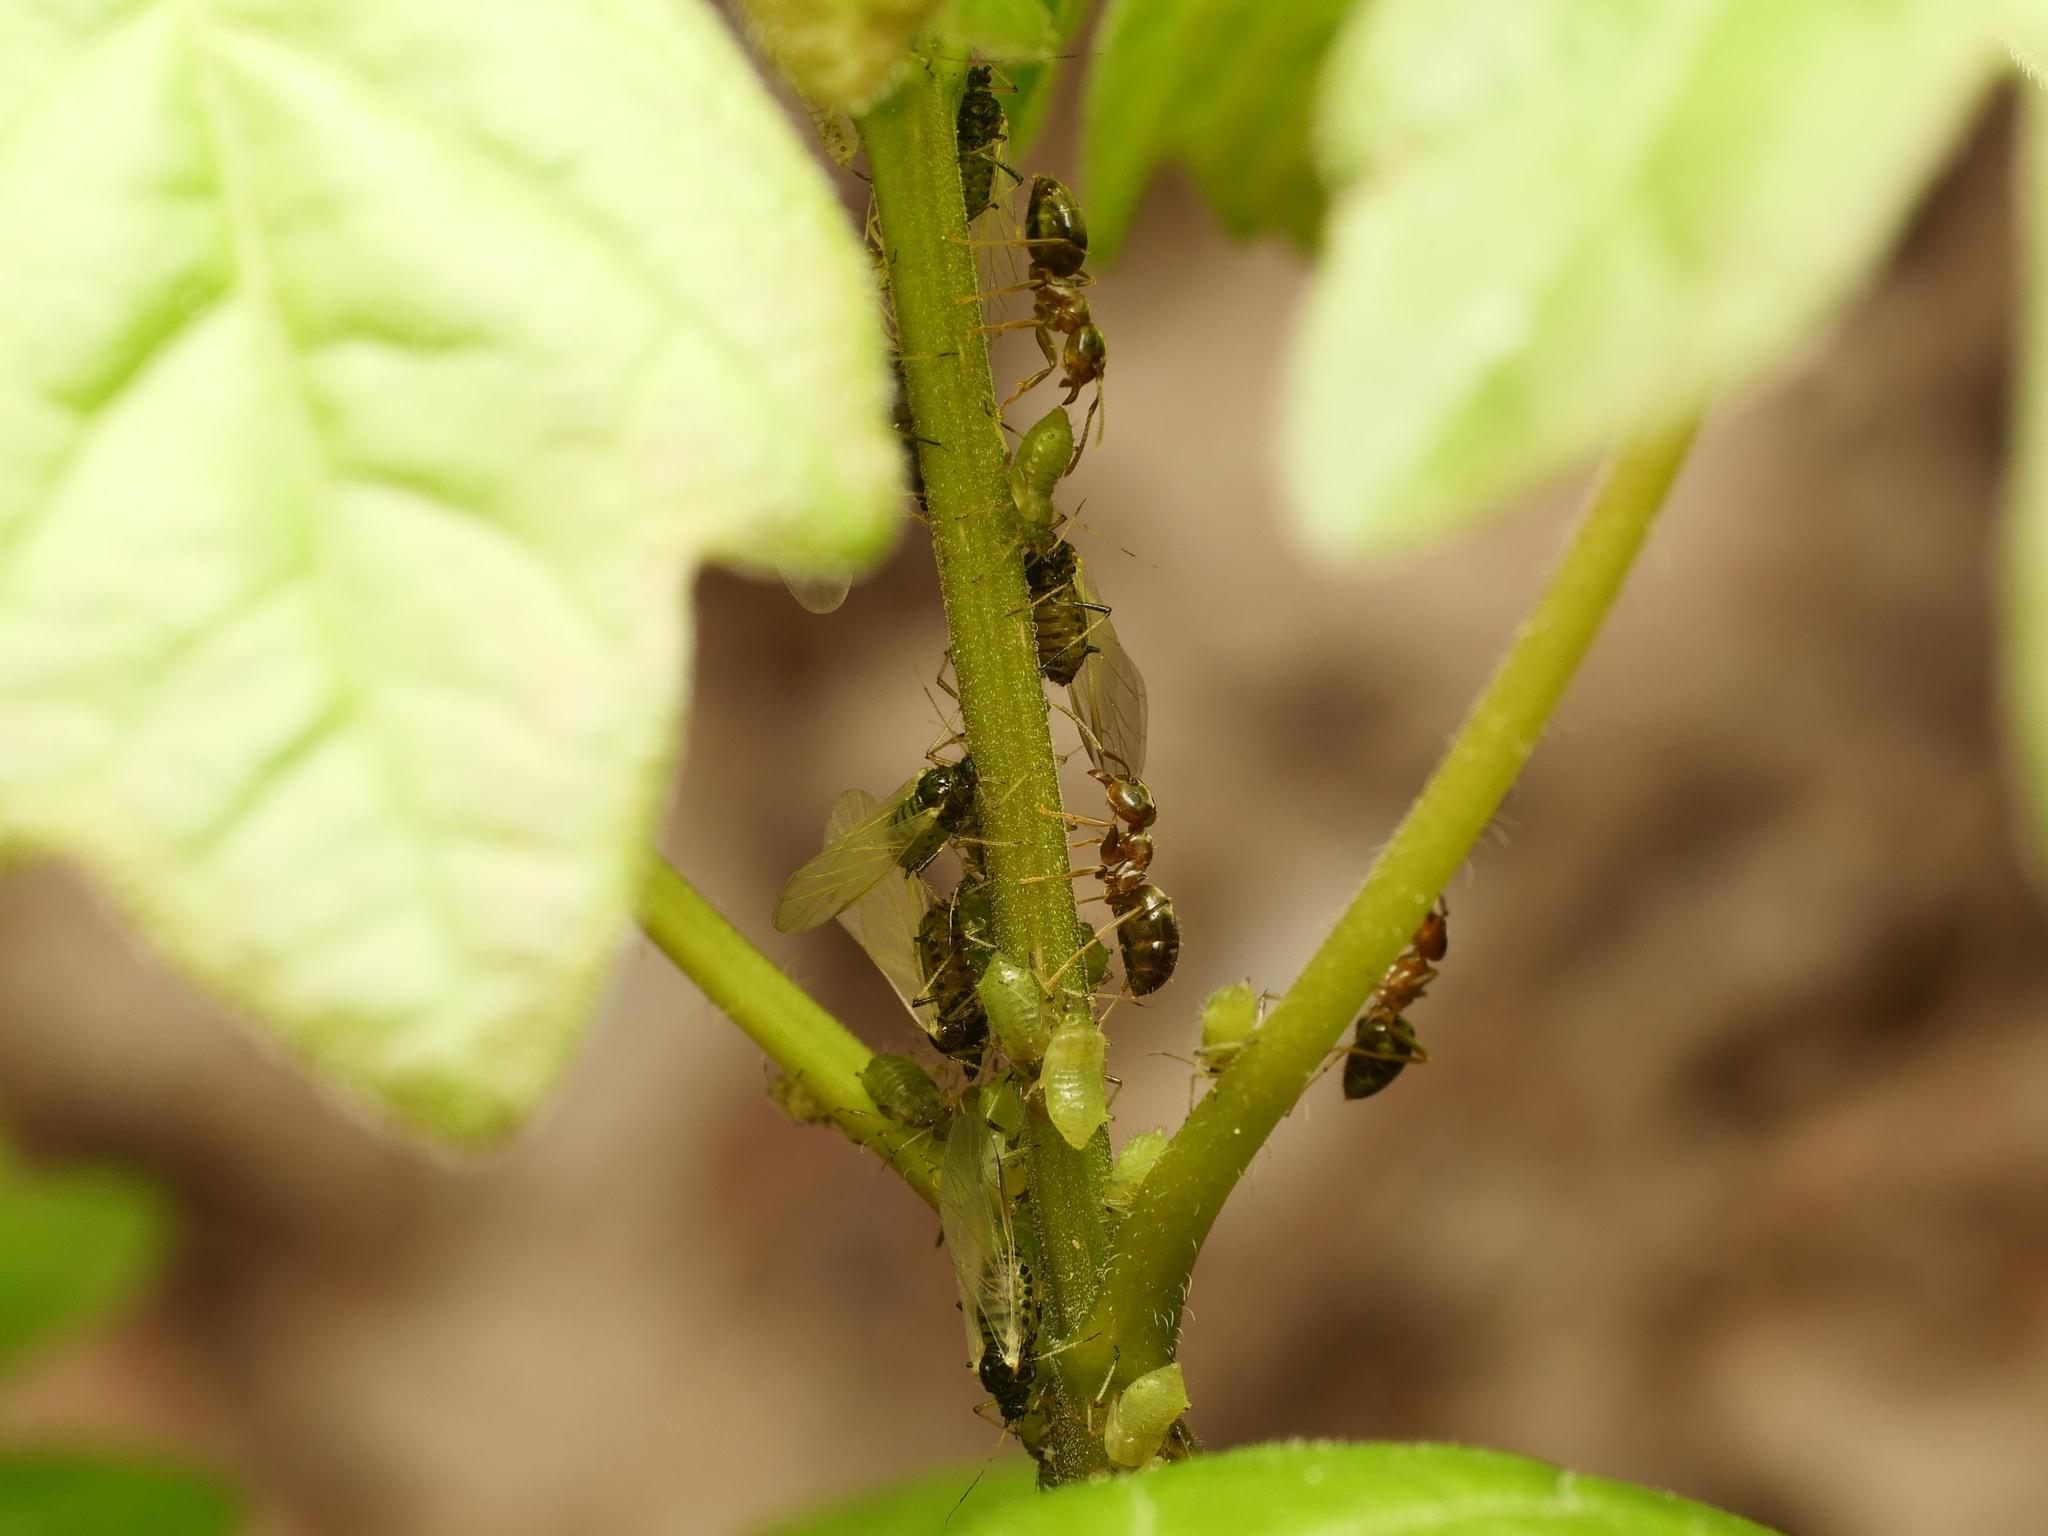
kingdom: Animalia
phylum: Arthropoda
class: Insecta
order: Hymenoptera
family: Formicidae
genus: Lasius
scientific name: Lasius brunneus
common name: Brown ant
